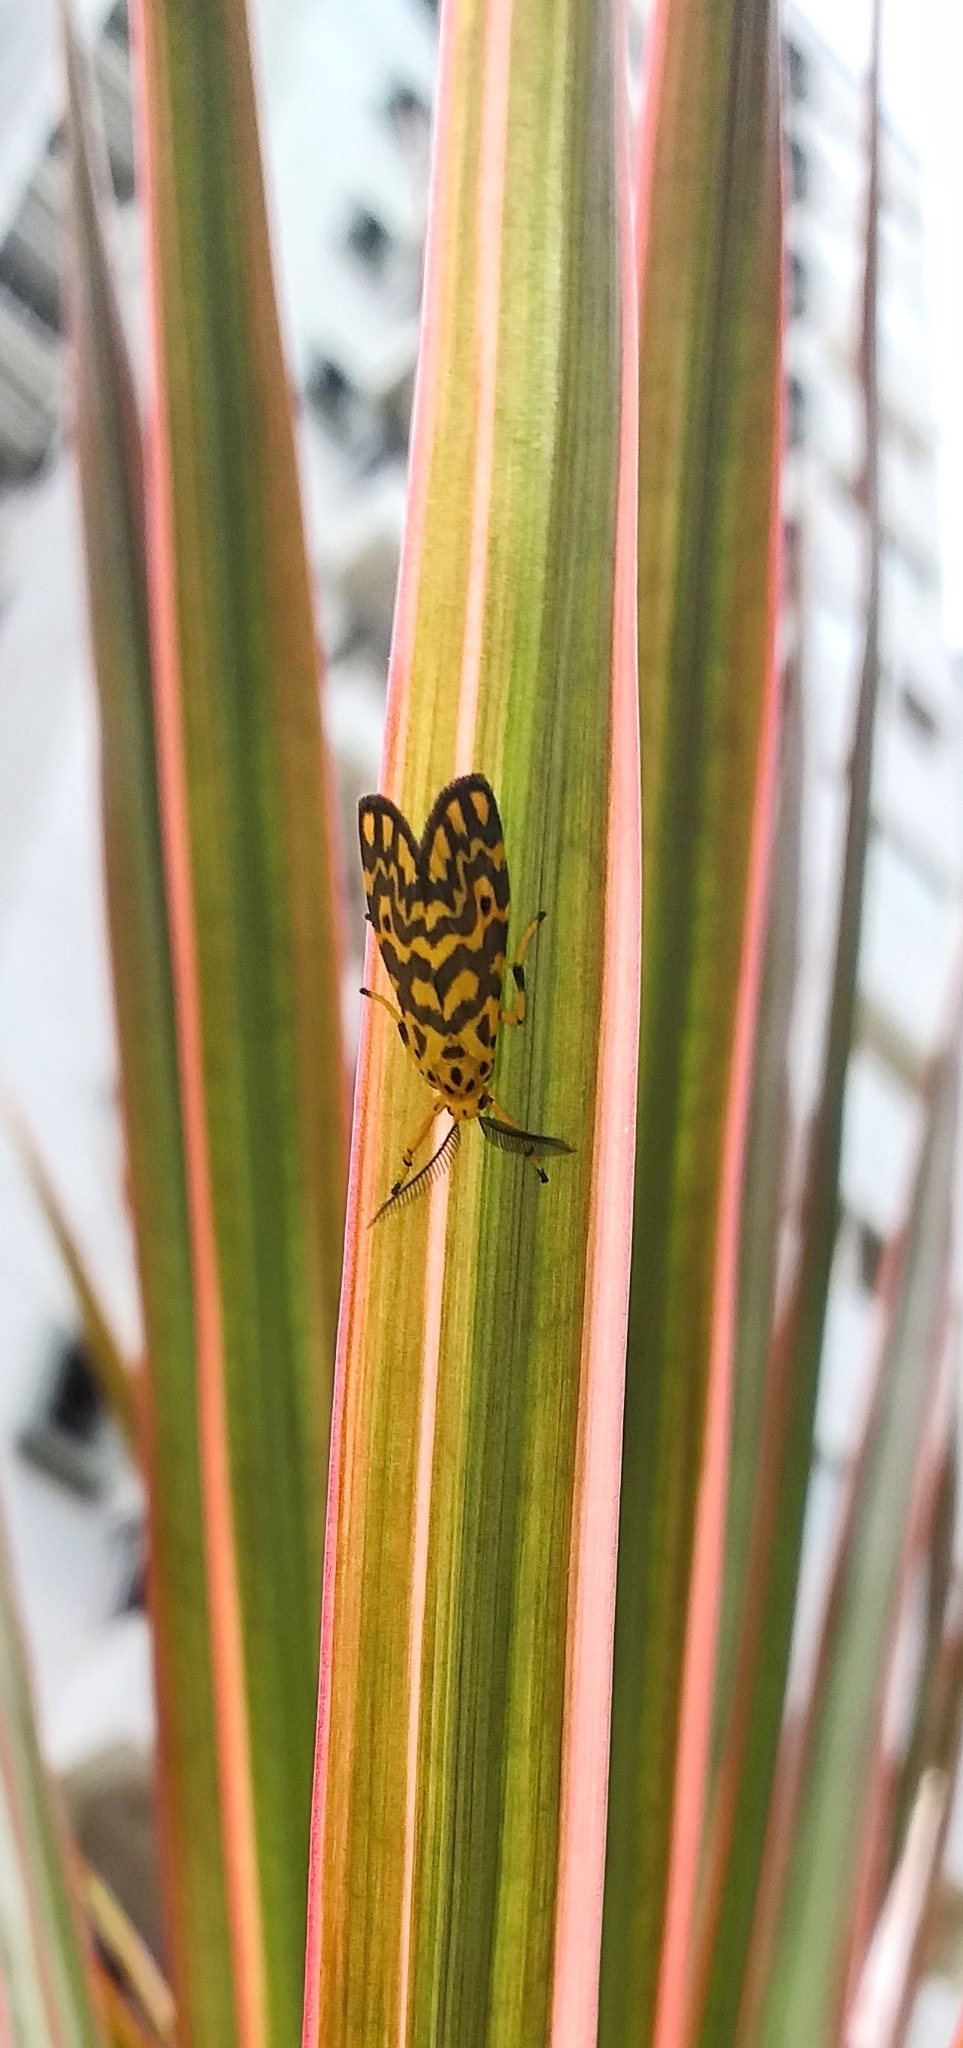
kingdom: Animalia
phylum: Arthropoda
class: Insecta
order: Lepidoptera
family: Erebidae
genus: Nepita
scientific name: Nepita conferta
